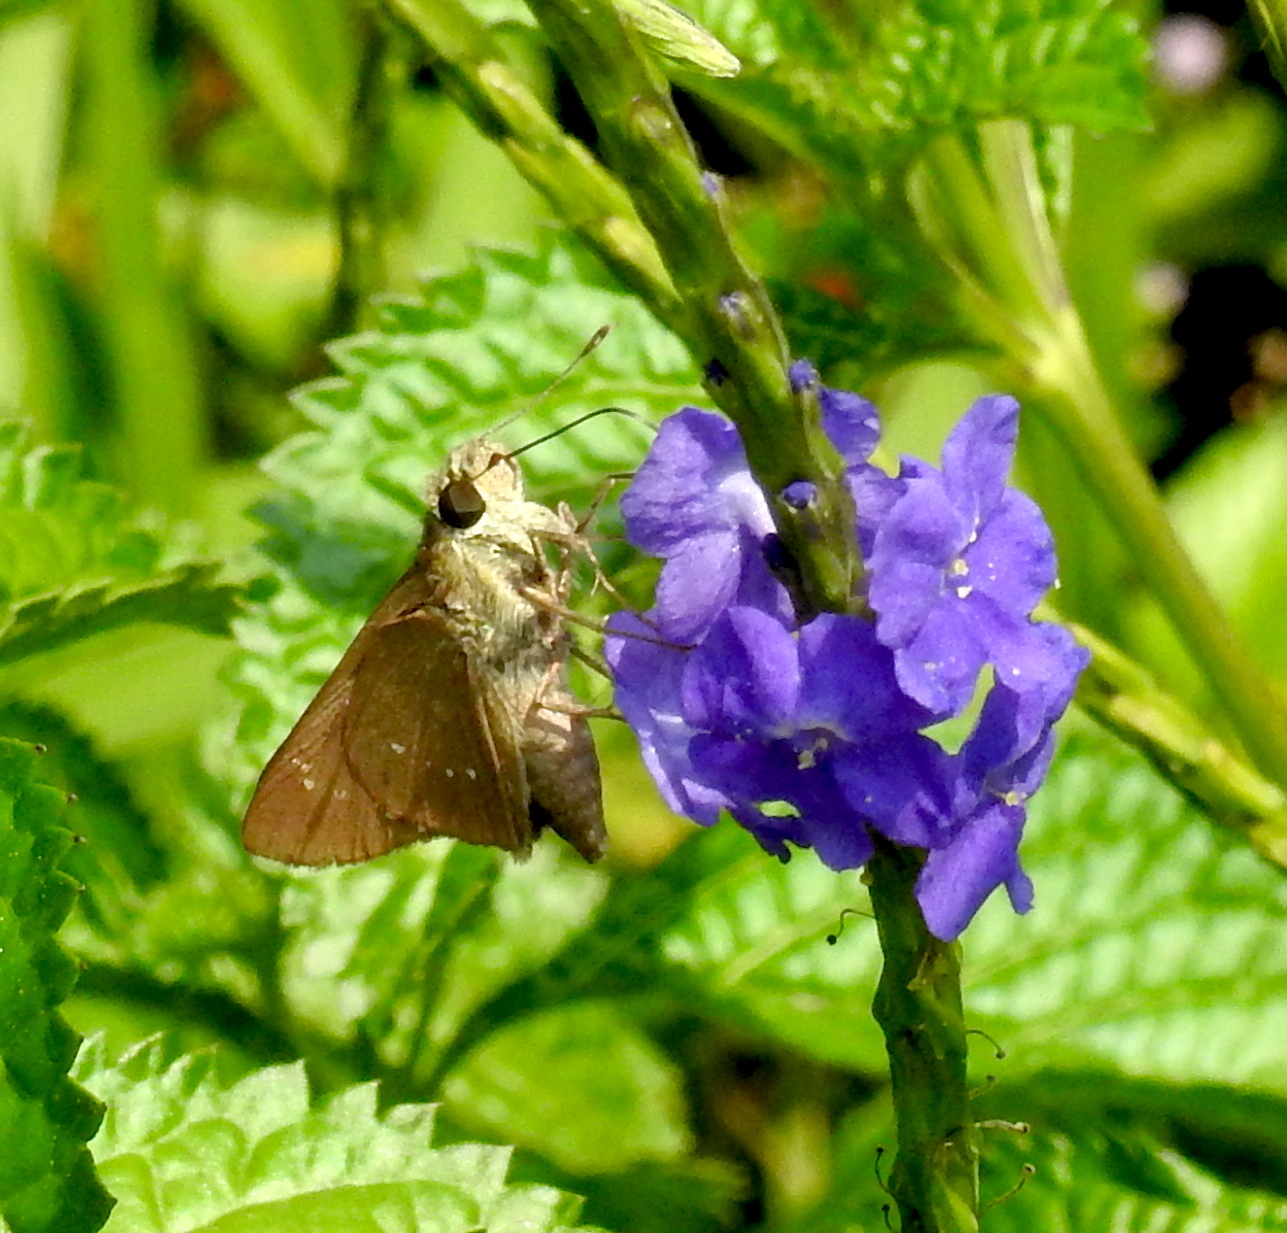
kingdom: Animalia
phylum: Arthropoda
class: Insecta
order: Lepidoptera
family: Hesperiidae
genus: Borbo
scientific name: Borbo cinnara
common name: Formosan swift
